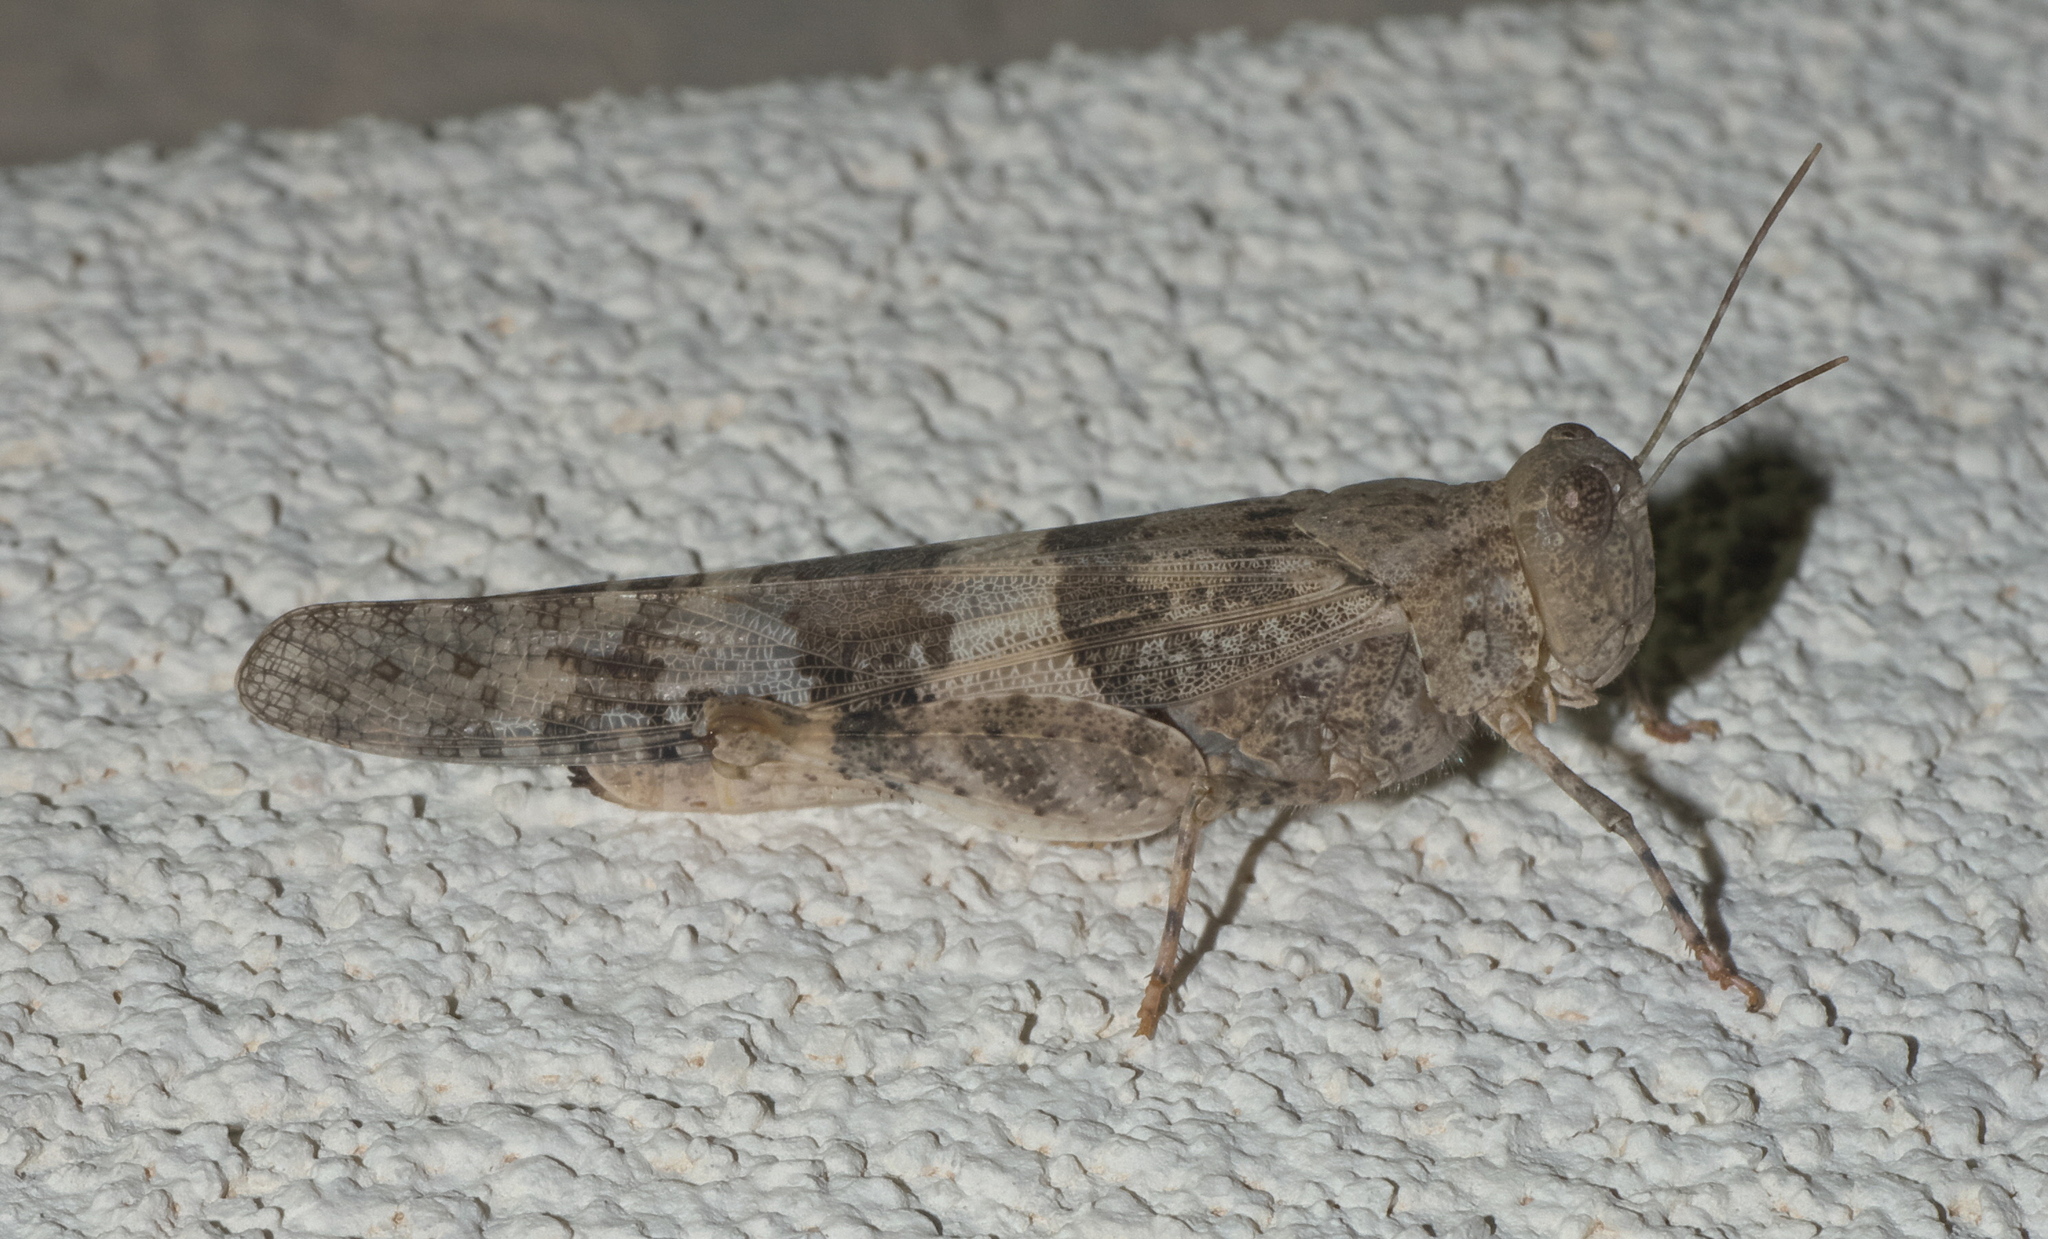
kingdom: Animalia
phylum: Arthropoda
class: Insecta
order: Orthoptera
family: Acrididae
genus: Trimerotropis
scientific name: Trimerotropis pallidipennis
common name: Pallid-winged grasshopper
